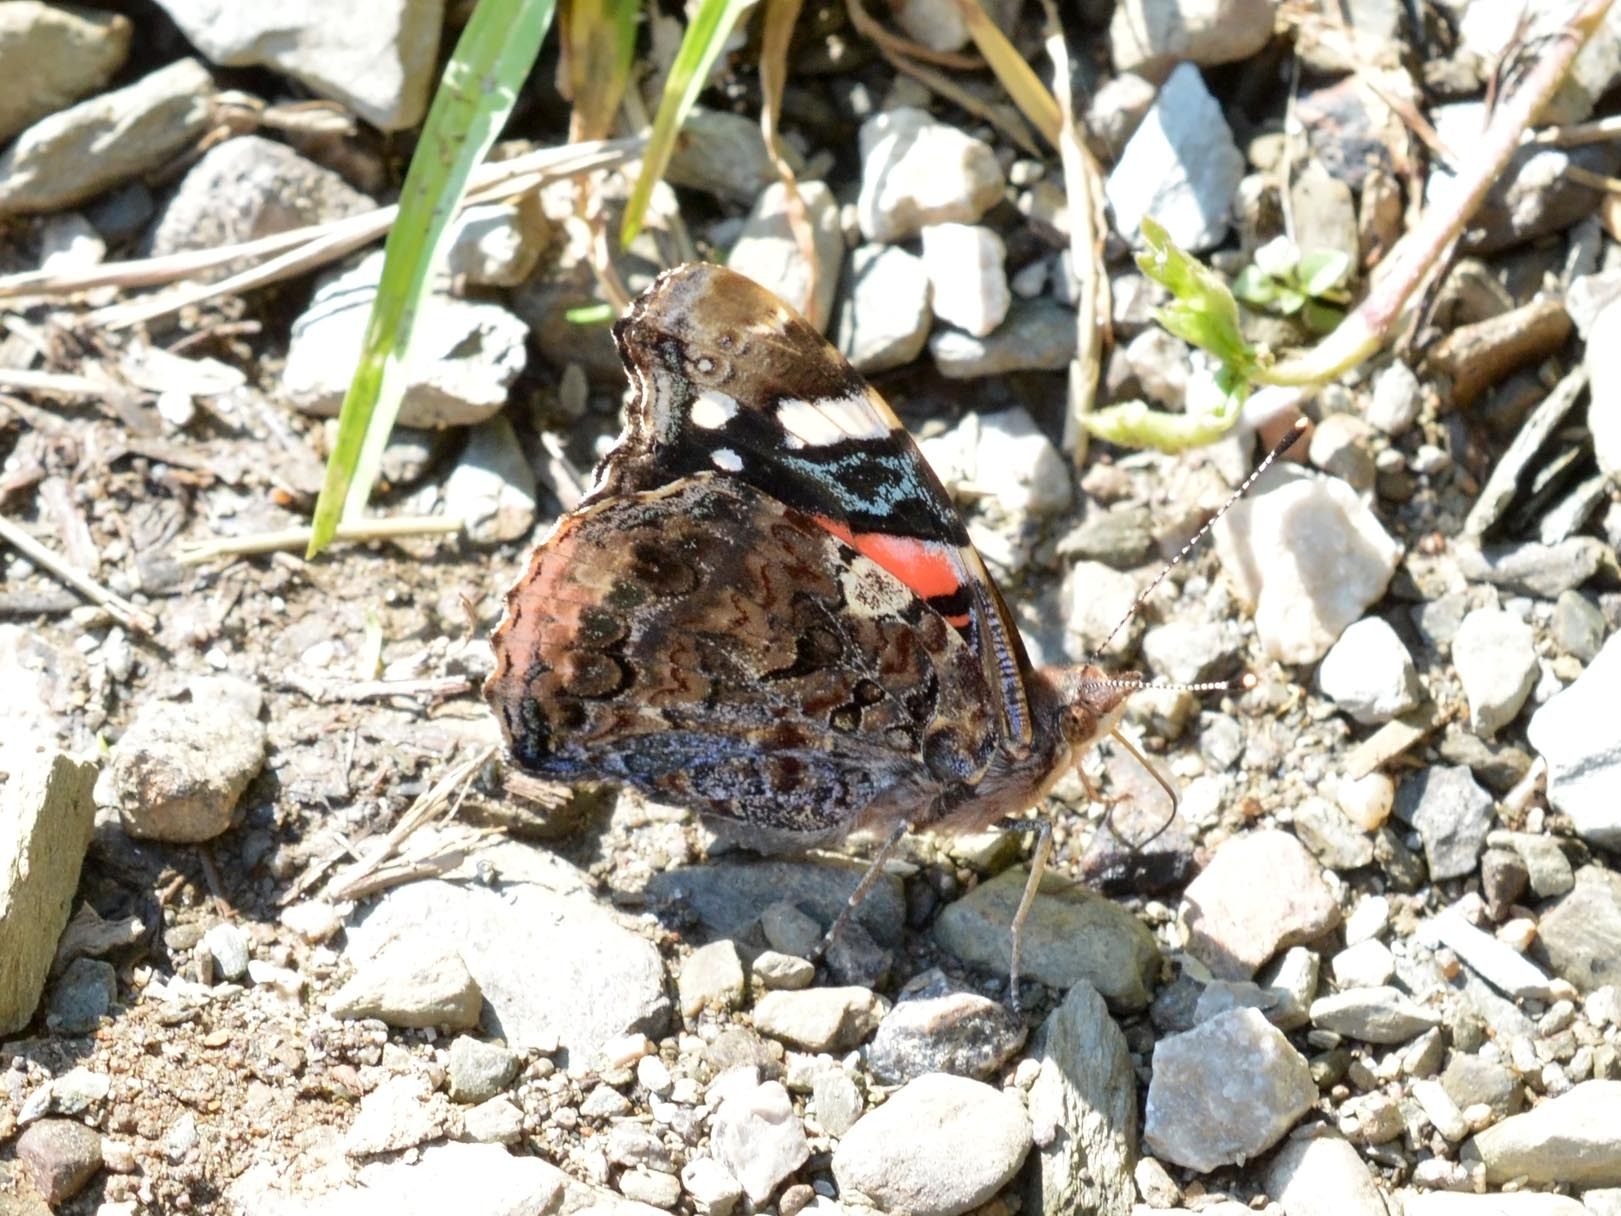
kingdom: Animalia
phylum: Arthropoda
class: Insecta
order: Lepidoptera
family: Nymphalidae
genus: Vanessa
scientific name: Vanessa atalanta
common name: Red admiral
